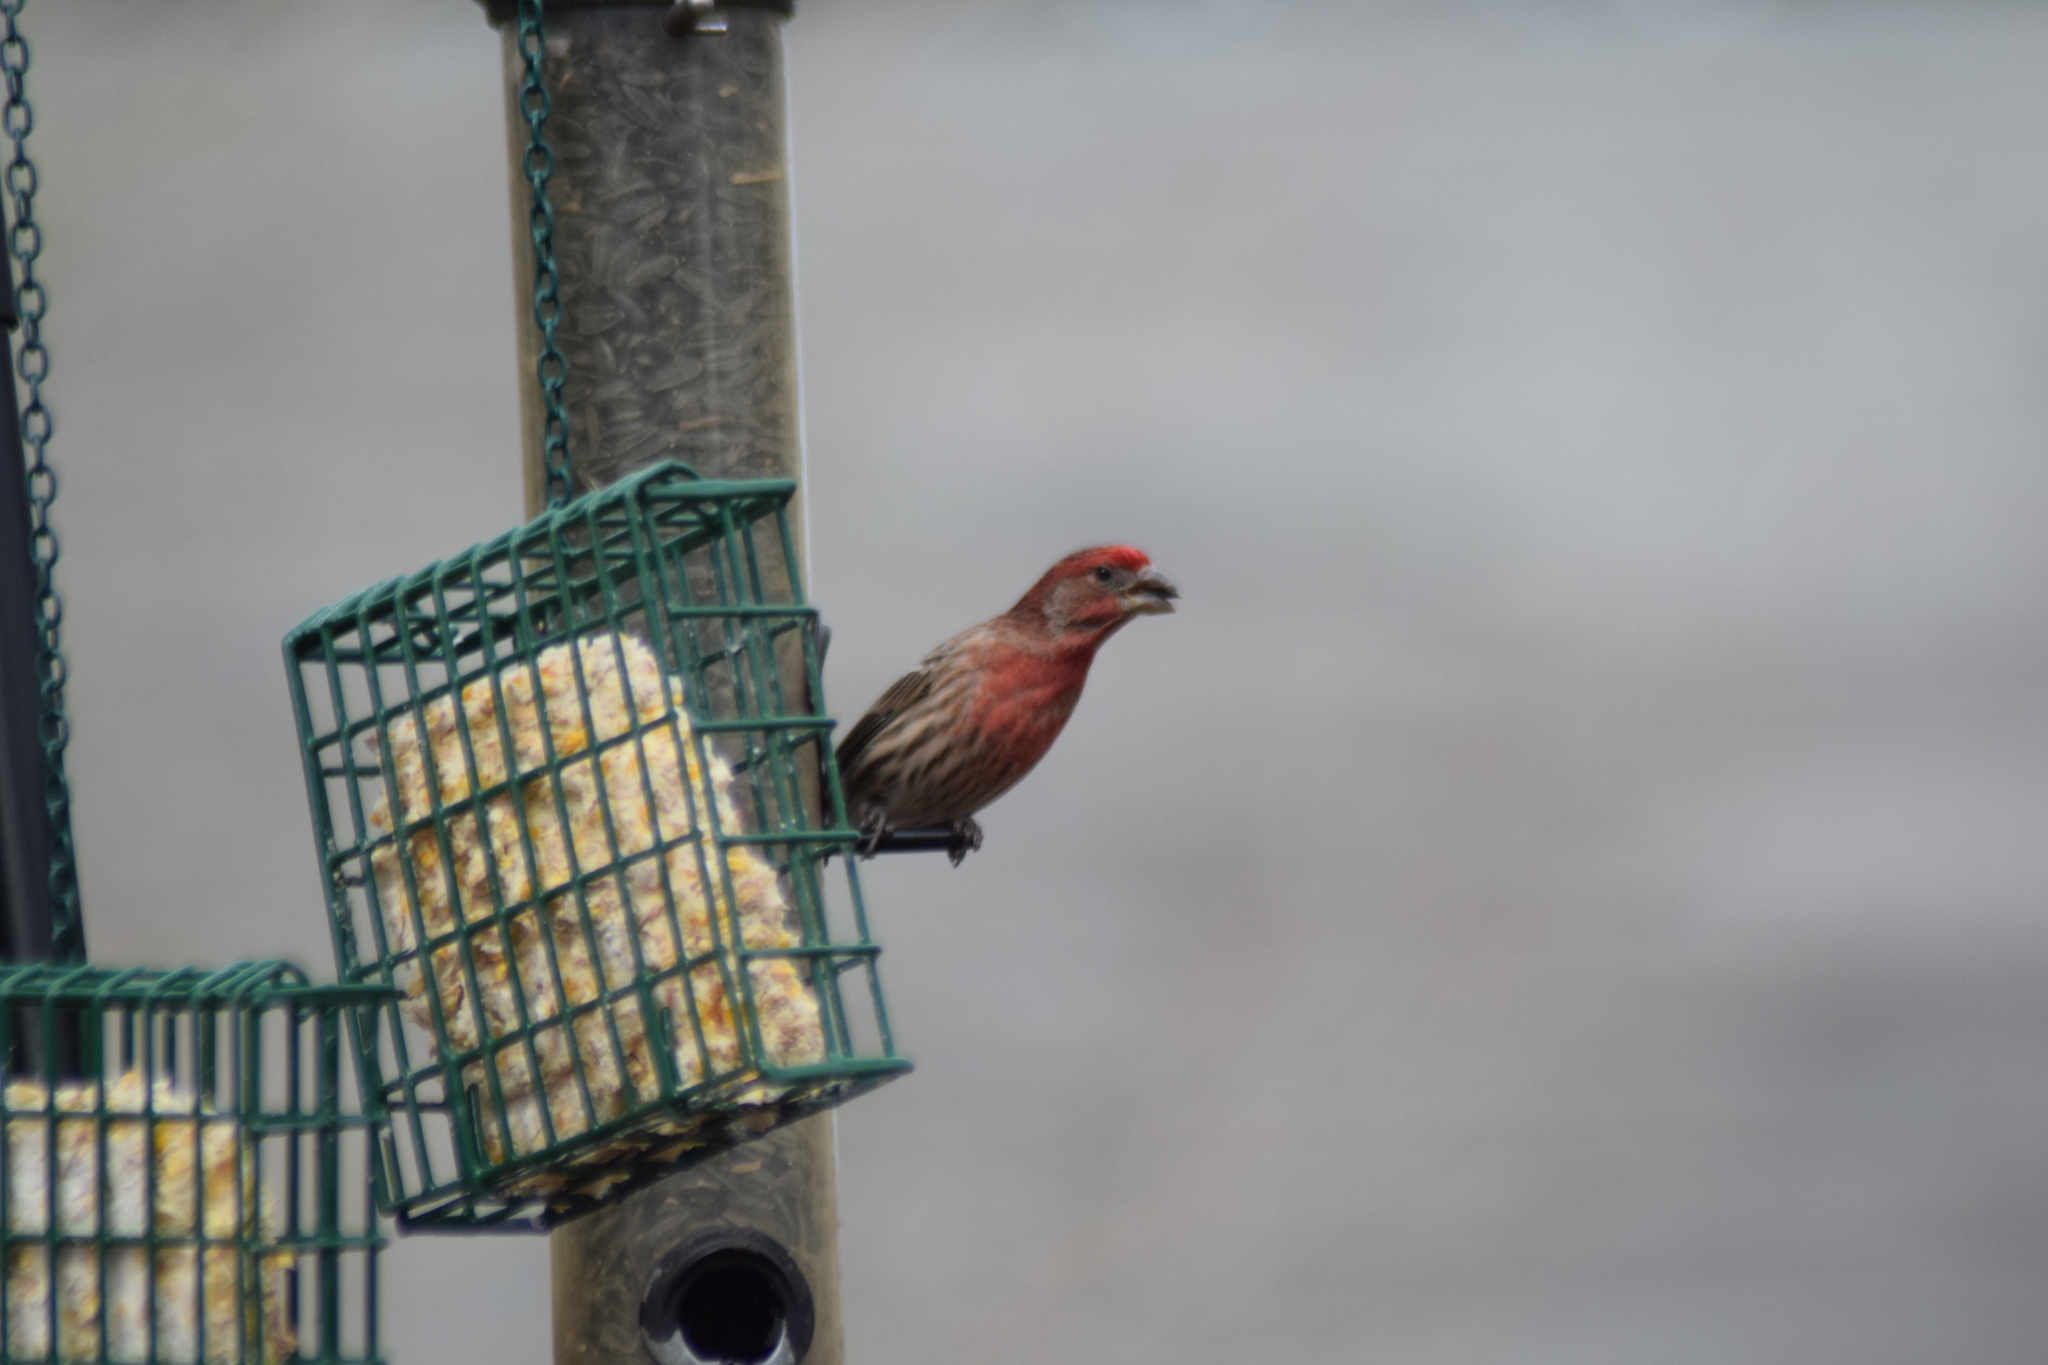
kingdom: Animalia
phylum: Chordata
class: Aves
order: Passeriformes
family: Fringillidae
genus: Haemorhous
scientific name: Haemorhous mexicanus
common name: House finch
